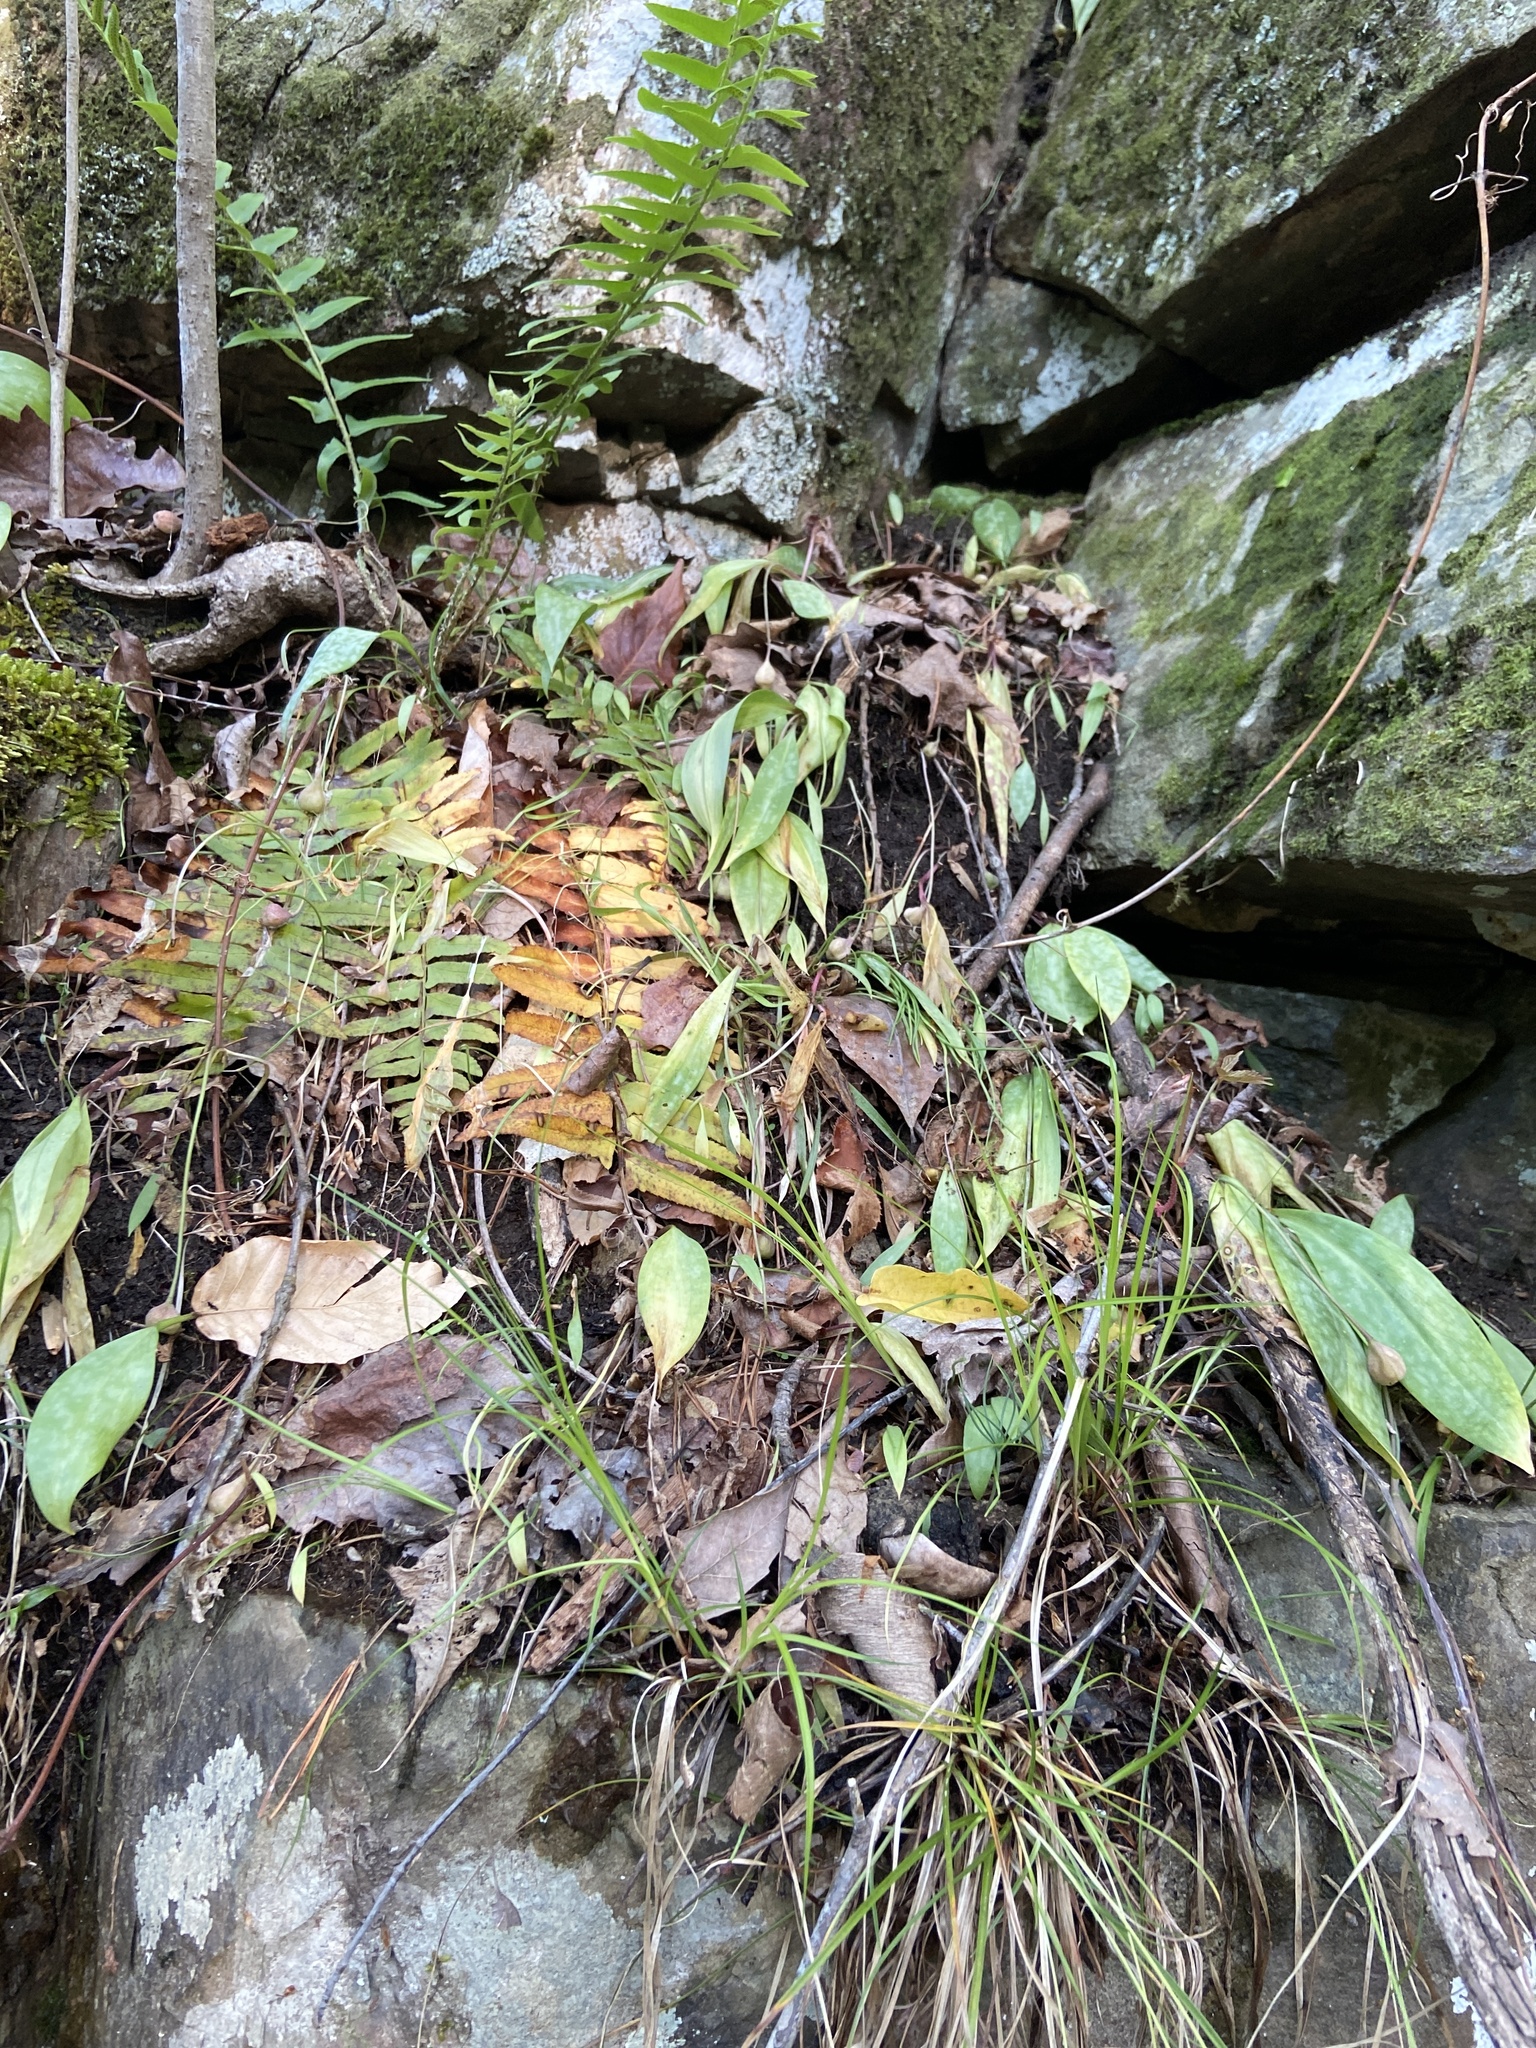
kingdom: Plantae
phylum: Tracheophyta
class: Liliopsida
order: Liliales
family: Liliaceae
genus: Erythronium
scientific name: Erythronium umbilicatum
